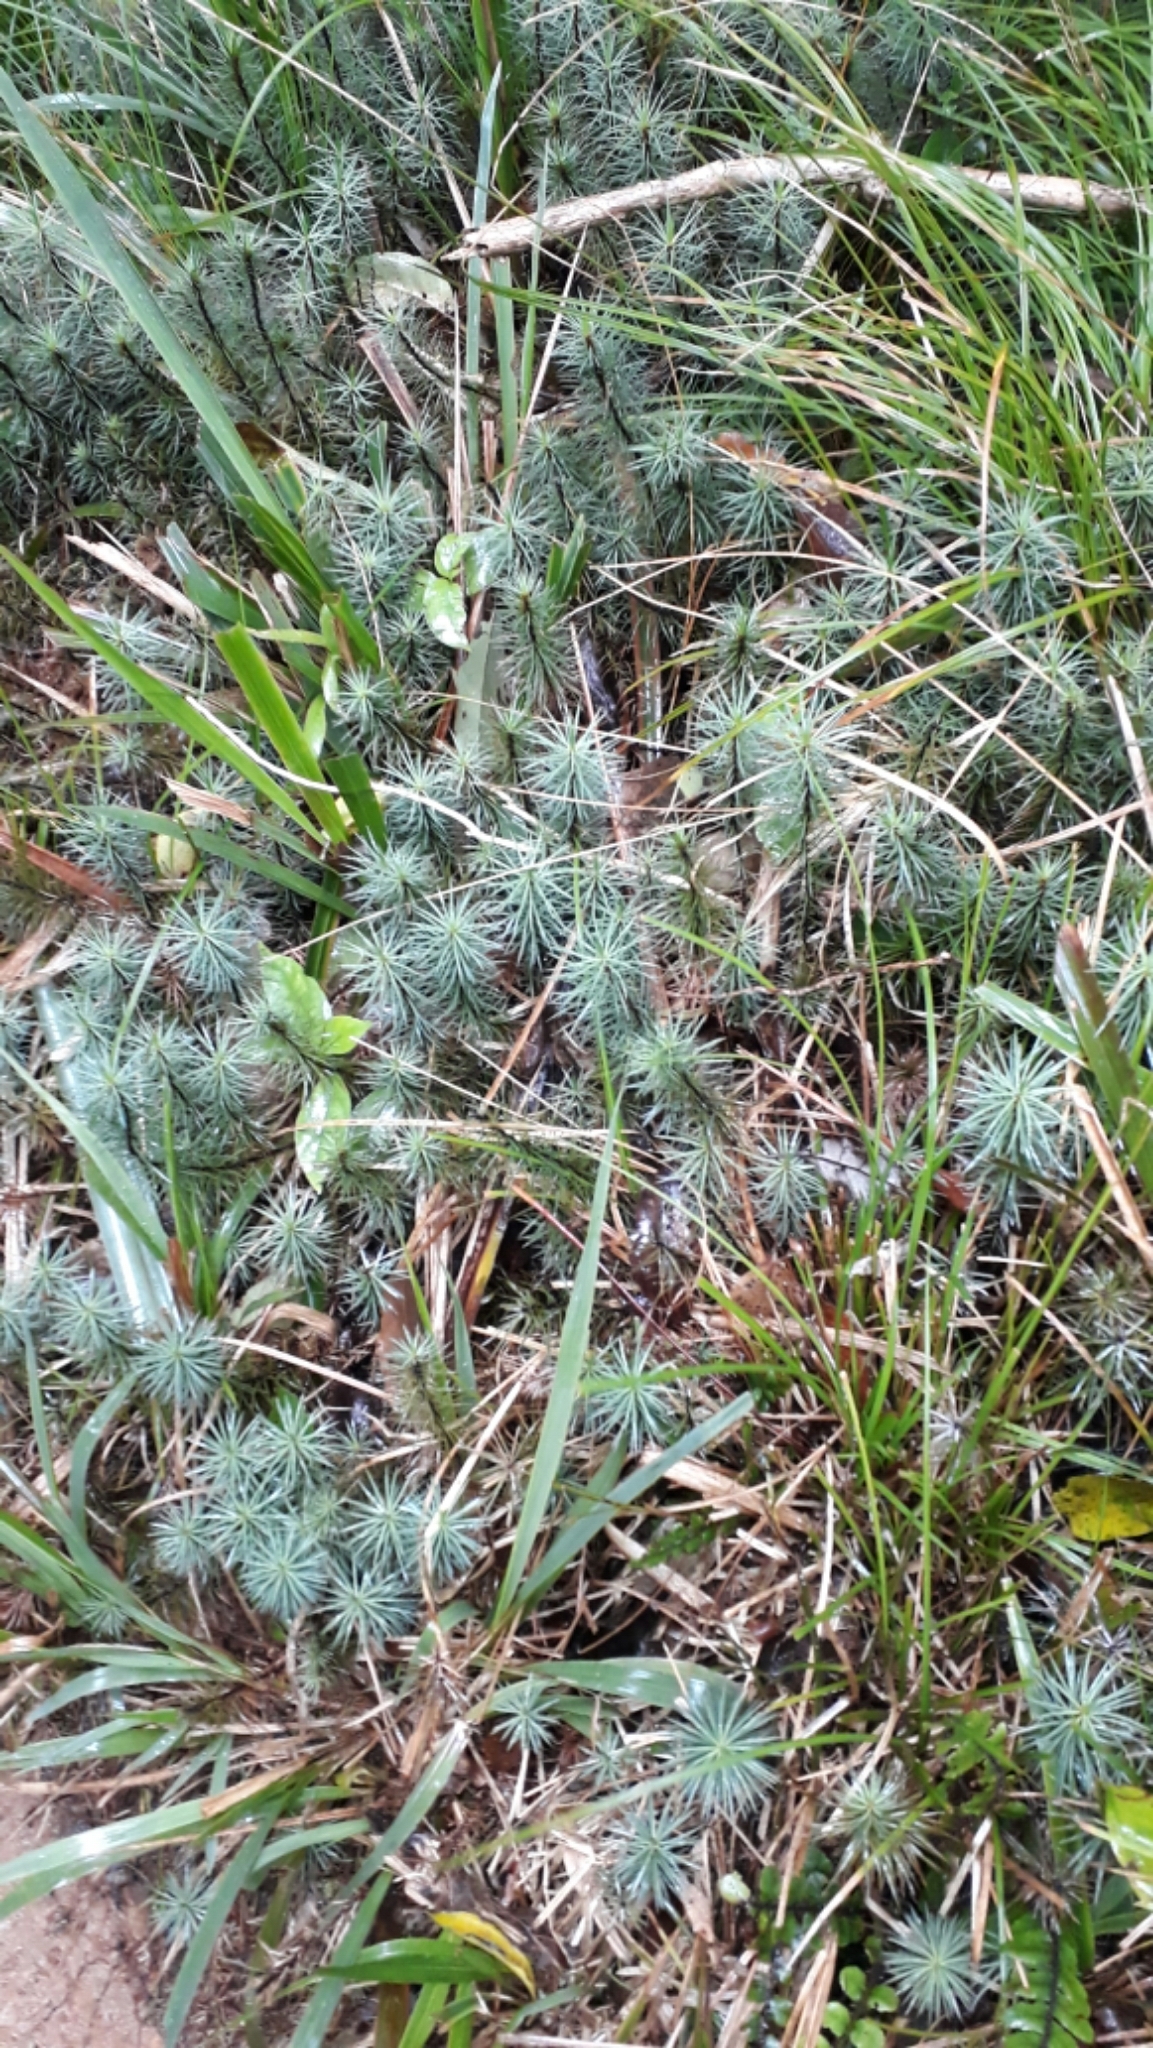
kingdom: Plantae
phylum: Bryophyta
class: Polytrichopsida
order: Polytrichales
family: Polytrichaceae
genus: Dawsonia
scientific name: Dawsonia superba
